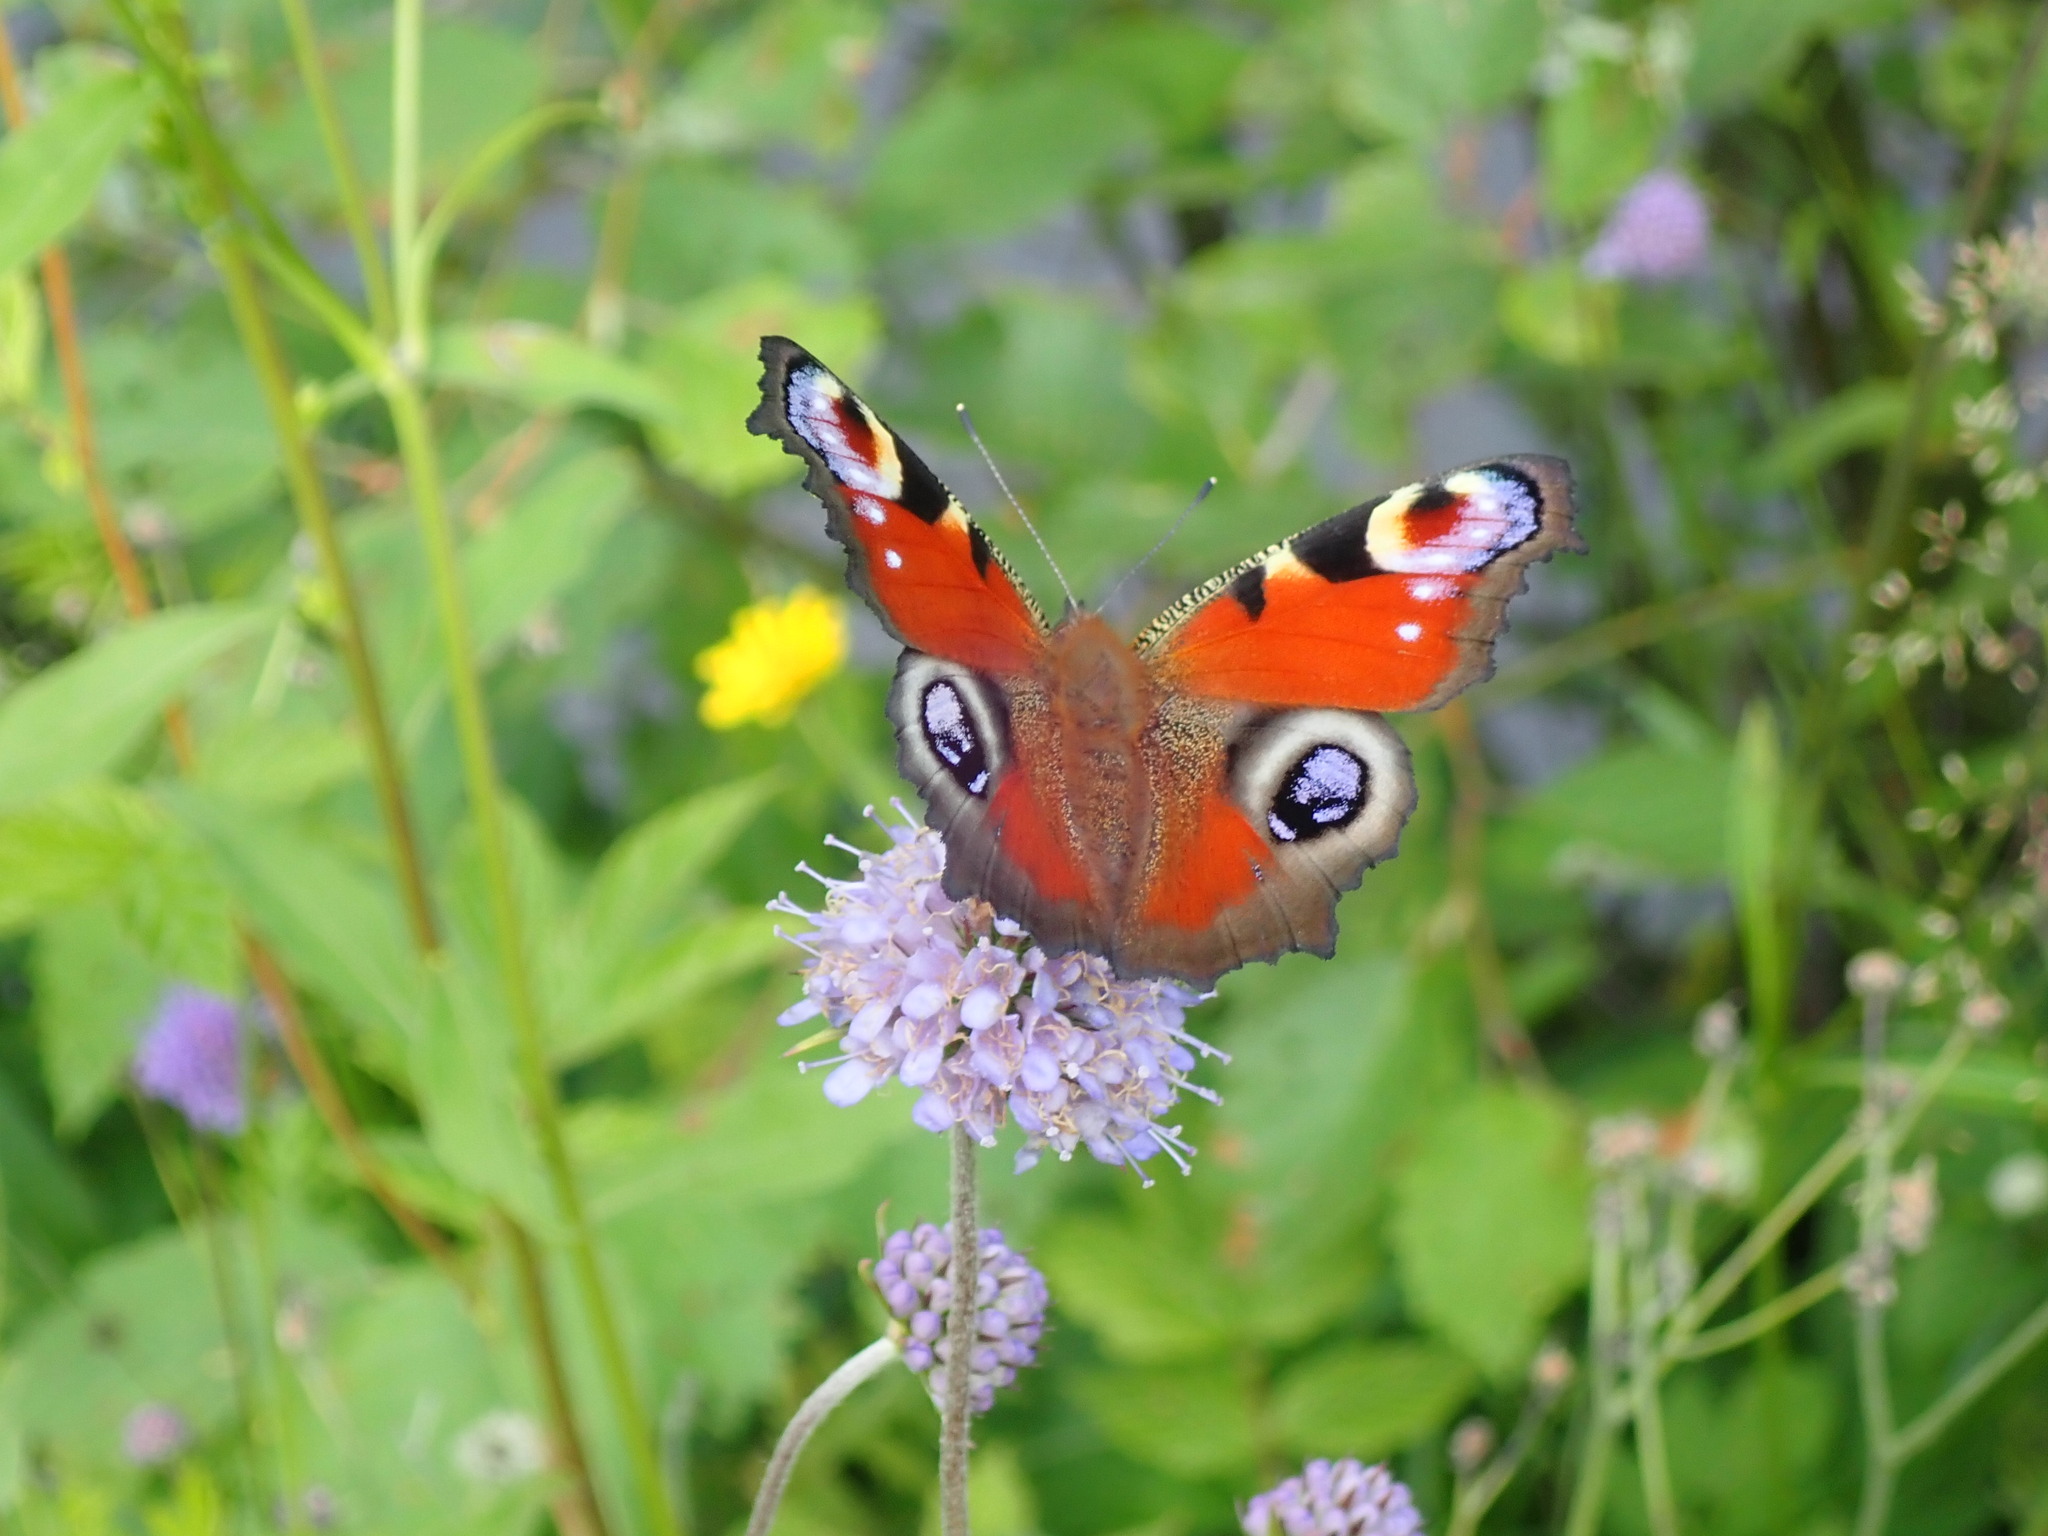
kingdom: Animalia
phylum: Arthropoda
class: Insecta
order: Lepidoptera
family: Nymphalidae
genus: Aglais
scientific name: Aglais io
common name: Peacock
